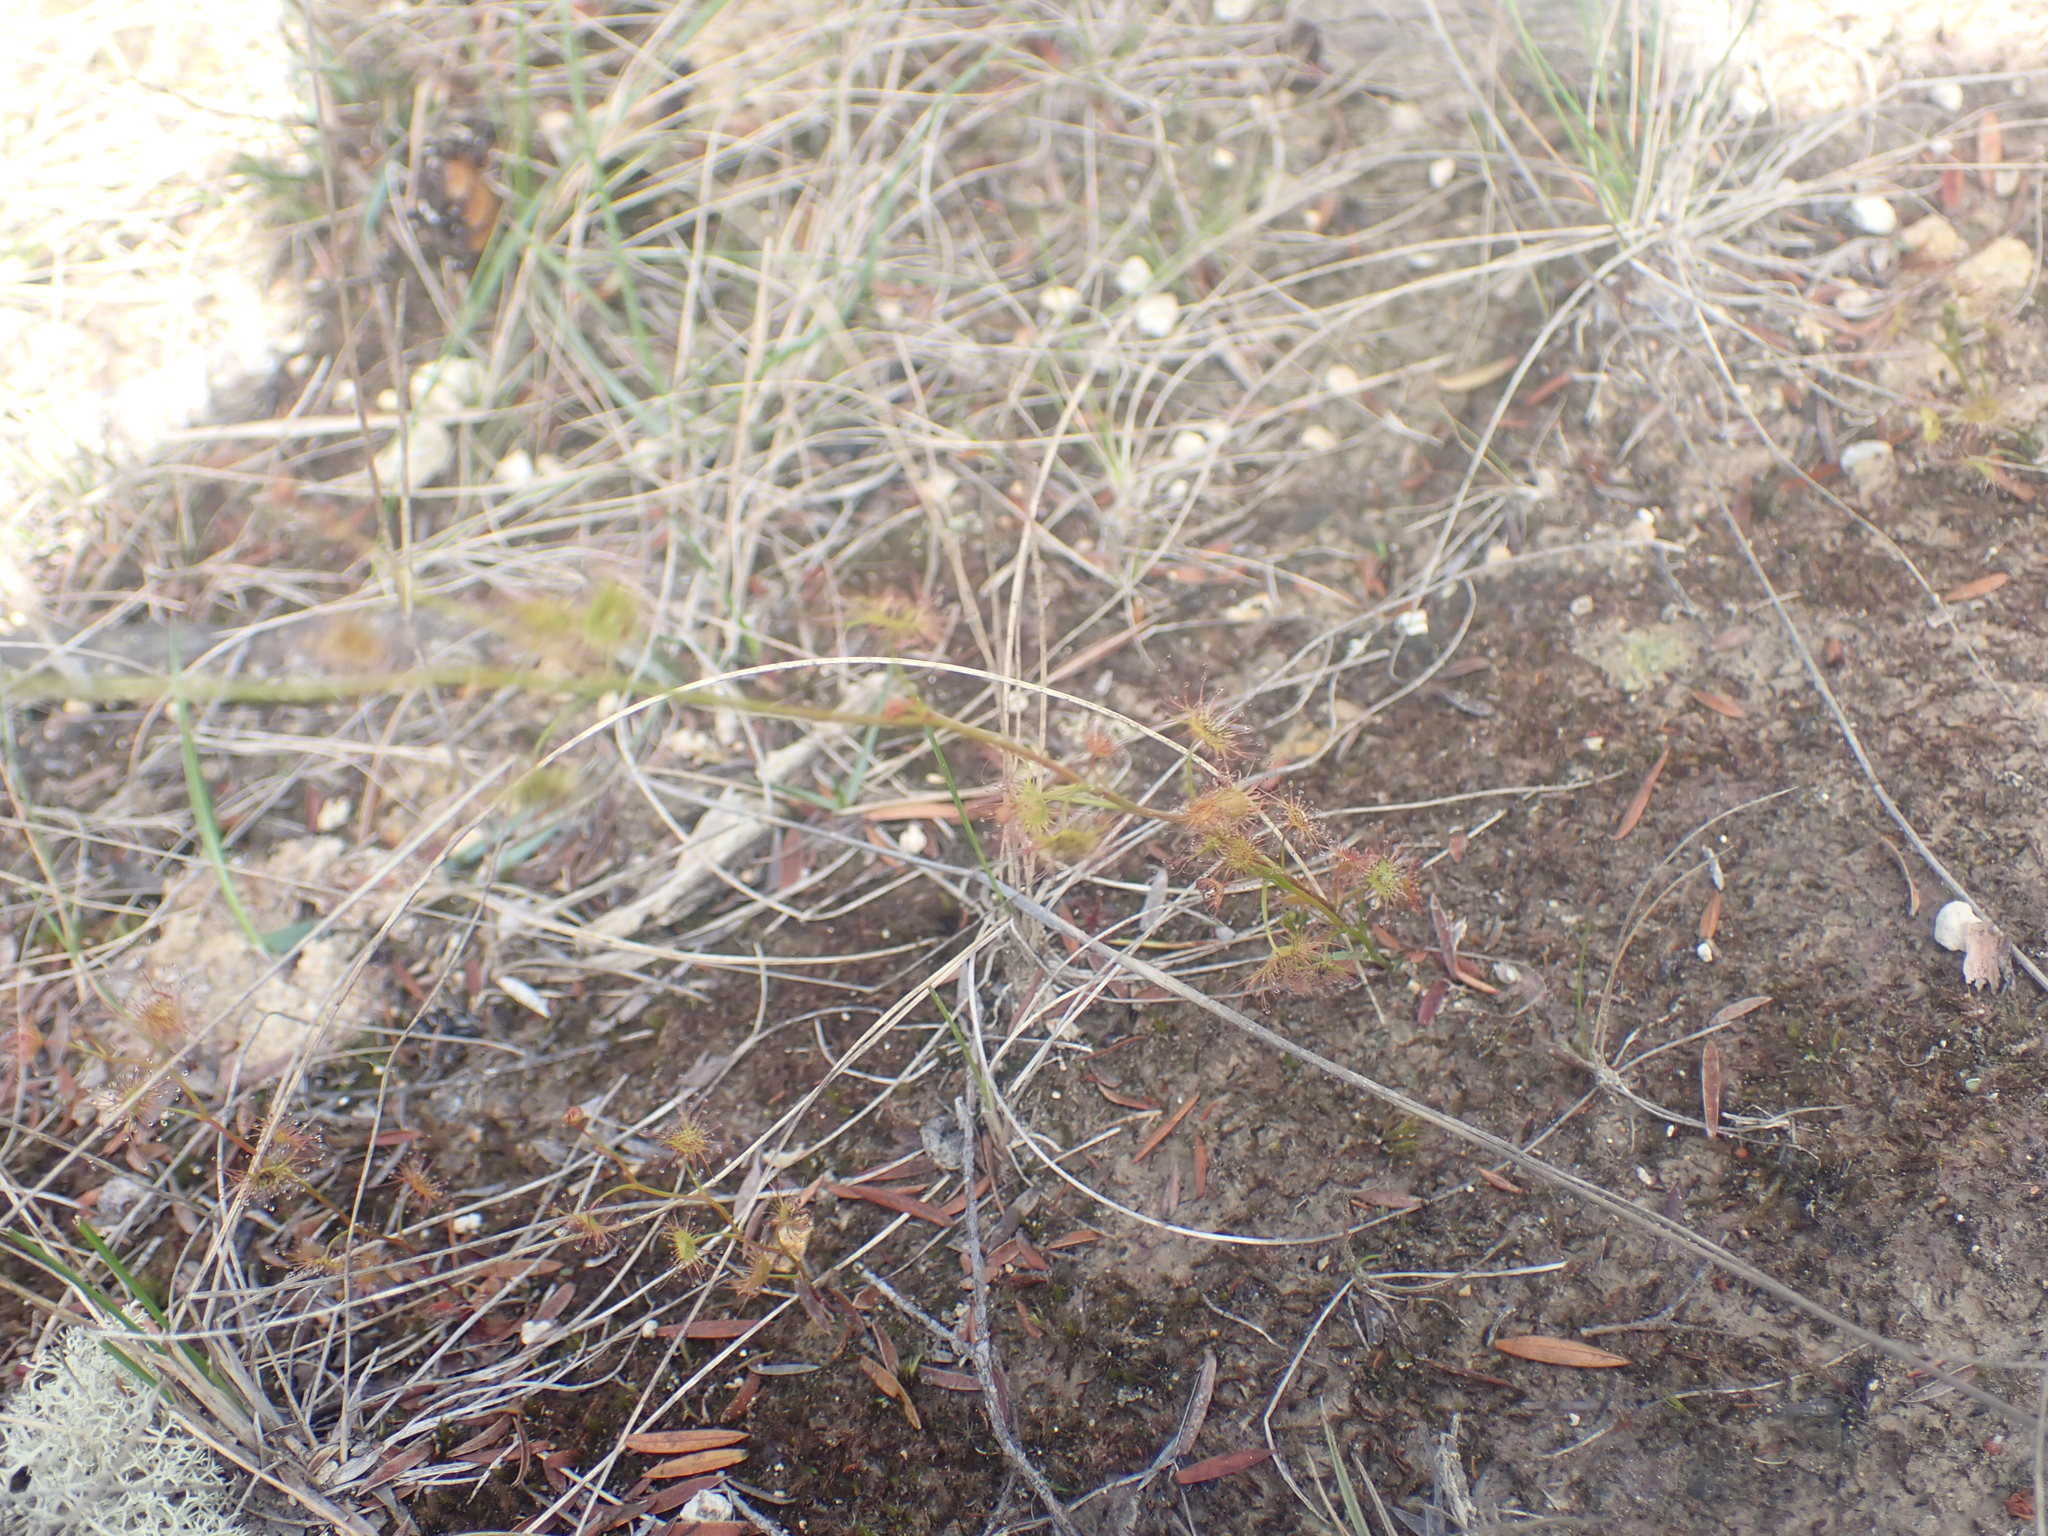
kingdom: Plantae
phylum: Tracheophyta
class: Magnoliopsida
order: Caryophyllales
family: Droseraceae
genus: Drosera
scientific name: Drosera peltata
